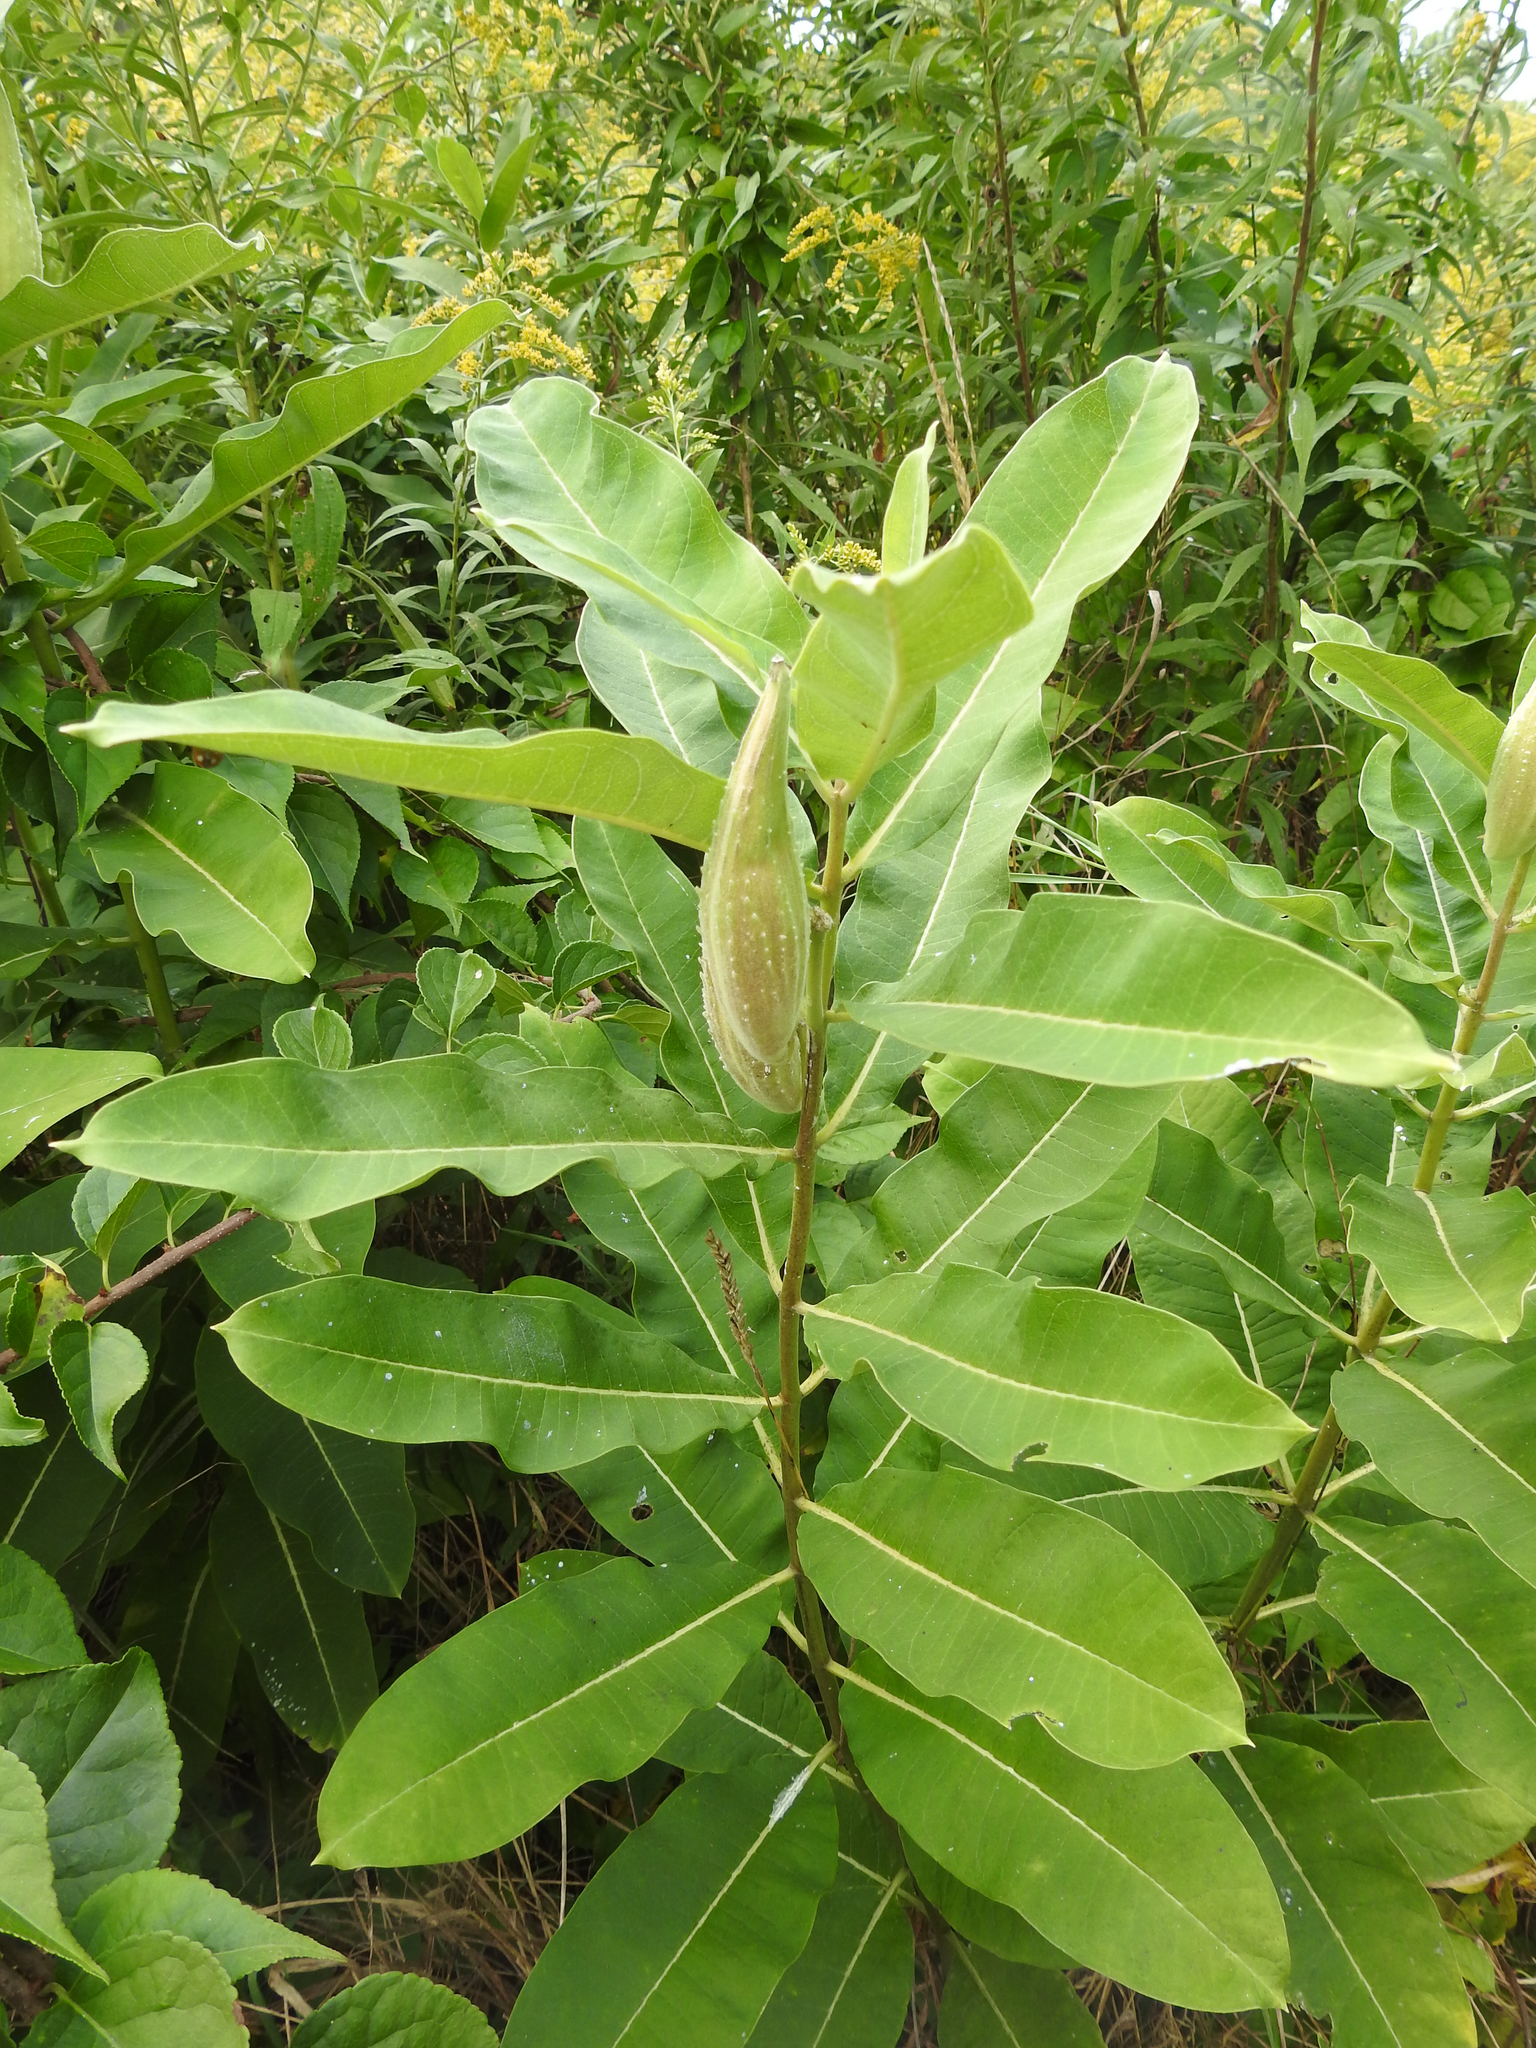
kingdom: Plantae
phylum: Tracheophyta
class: Magnoliopsida
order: Gentianales
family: Apocynaceae
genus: Asclepias
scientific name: Asclepias syriaca
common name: Common milkweed
